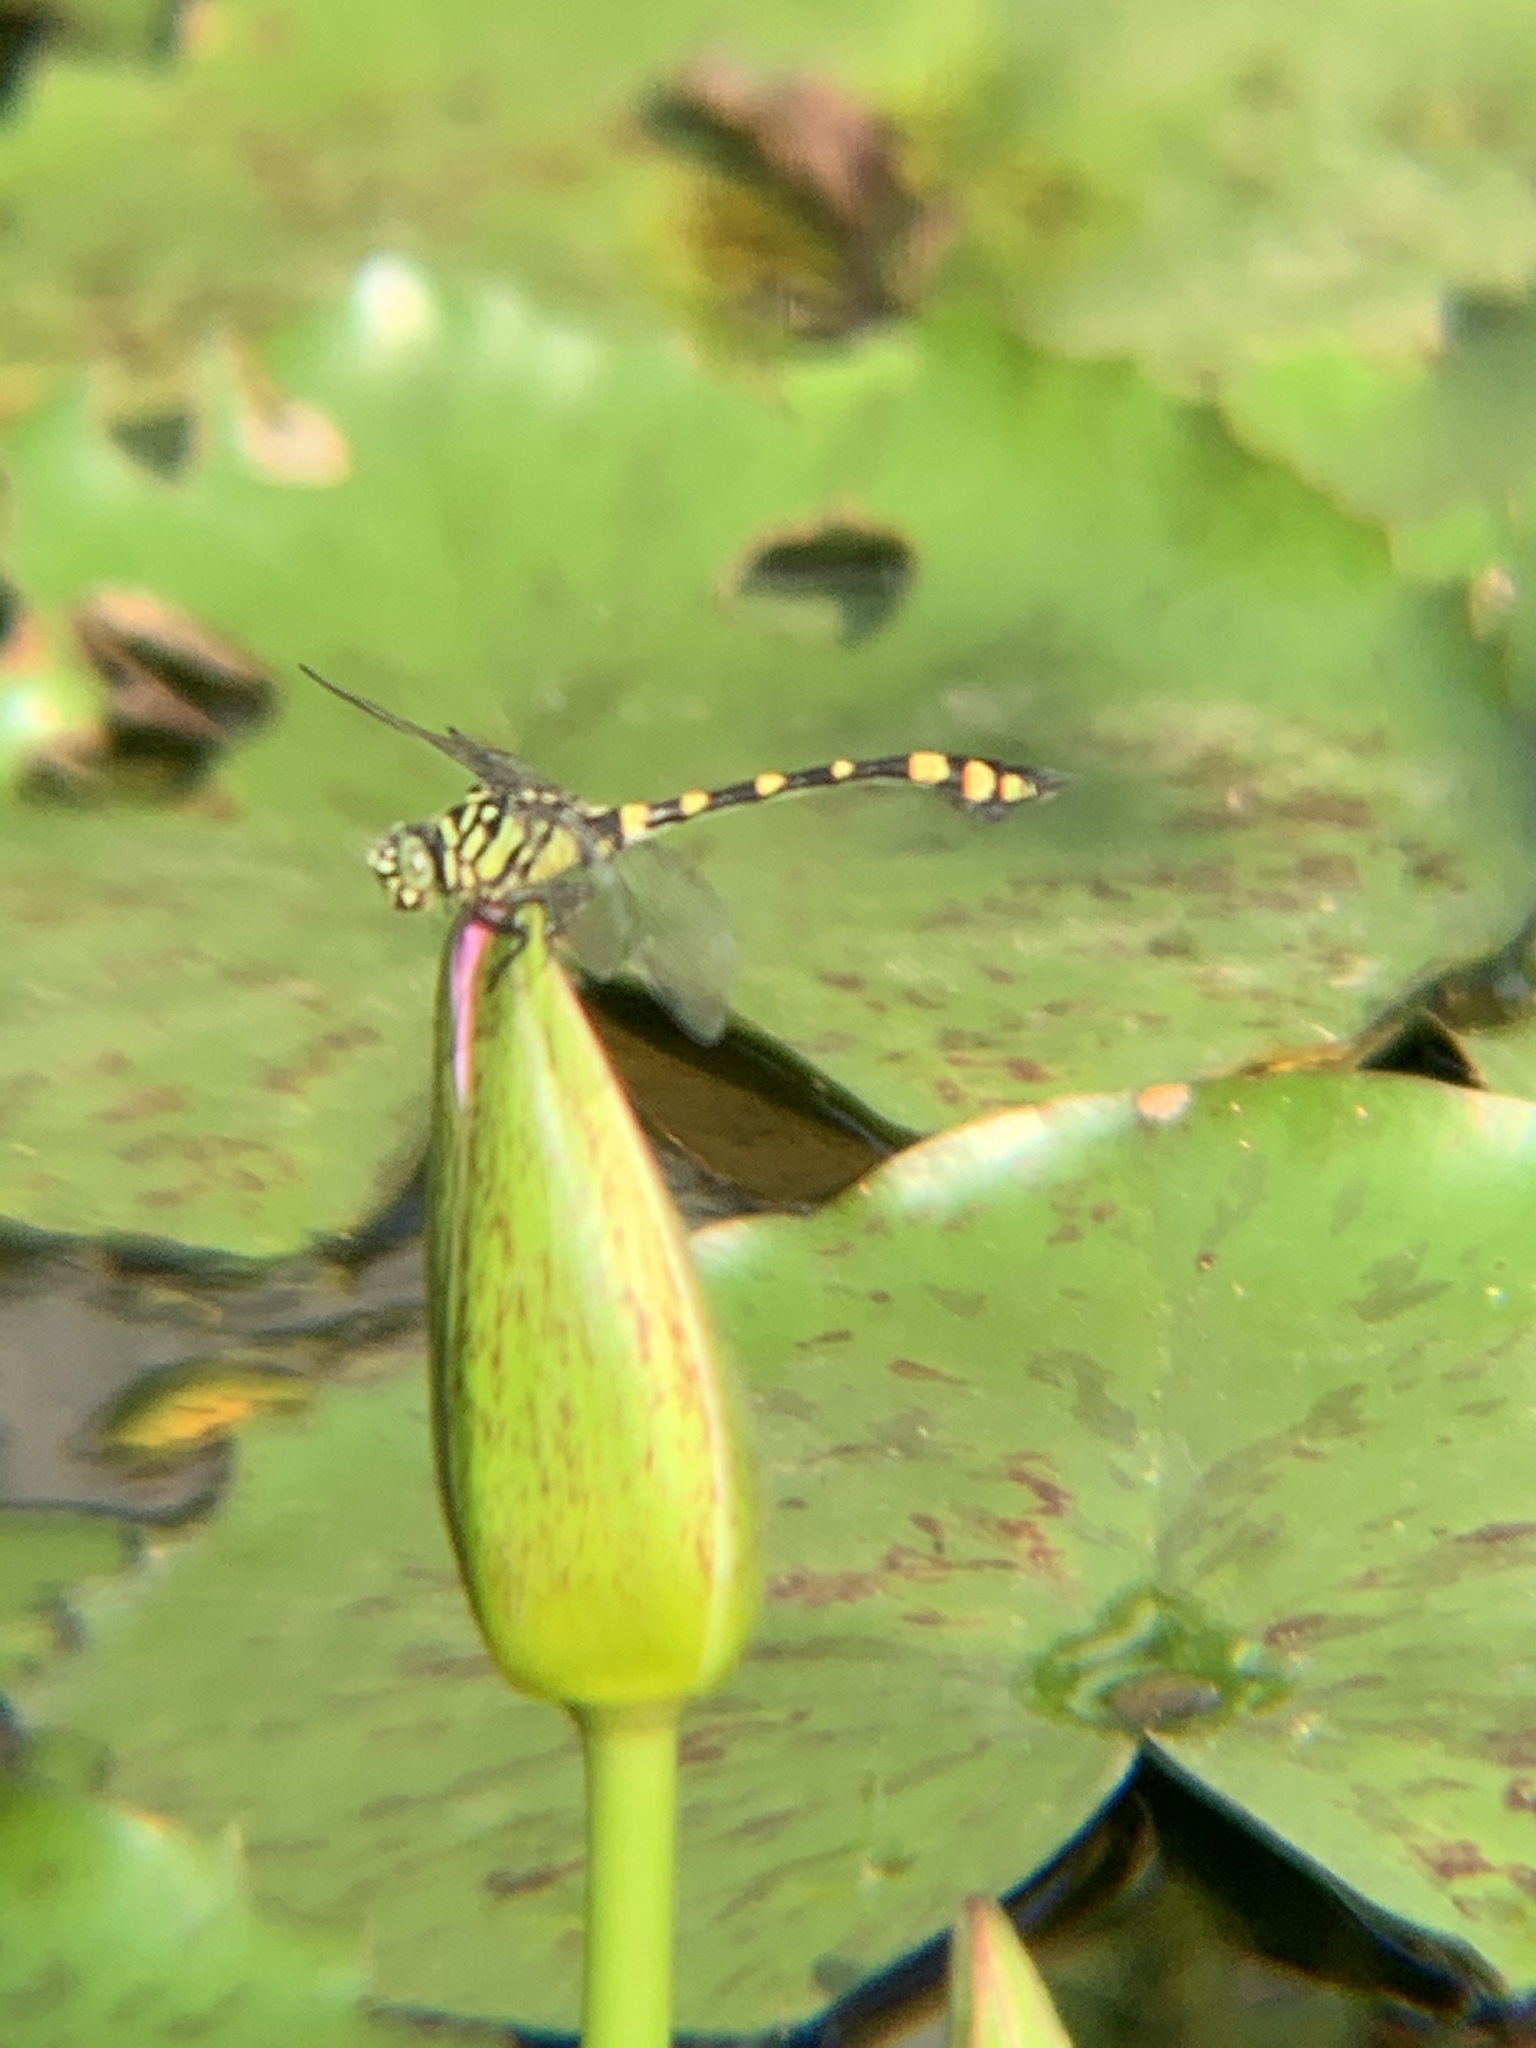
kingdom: Animalia
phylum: Arthropoda
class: Insecta
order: Odonata
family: Gomphidae
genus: Ictinogomphus
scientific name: Ictinogomphus rapax
